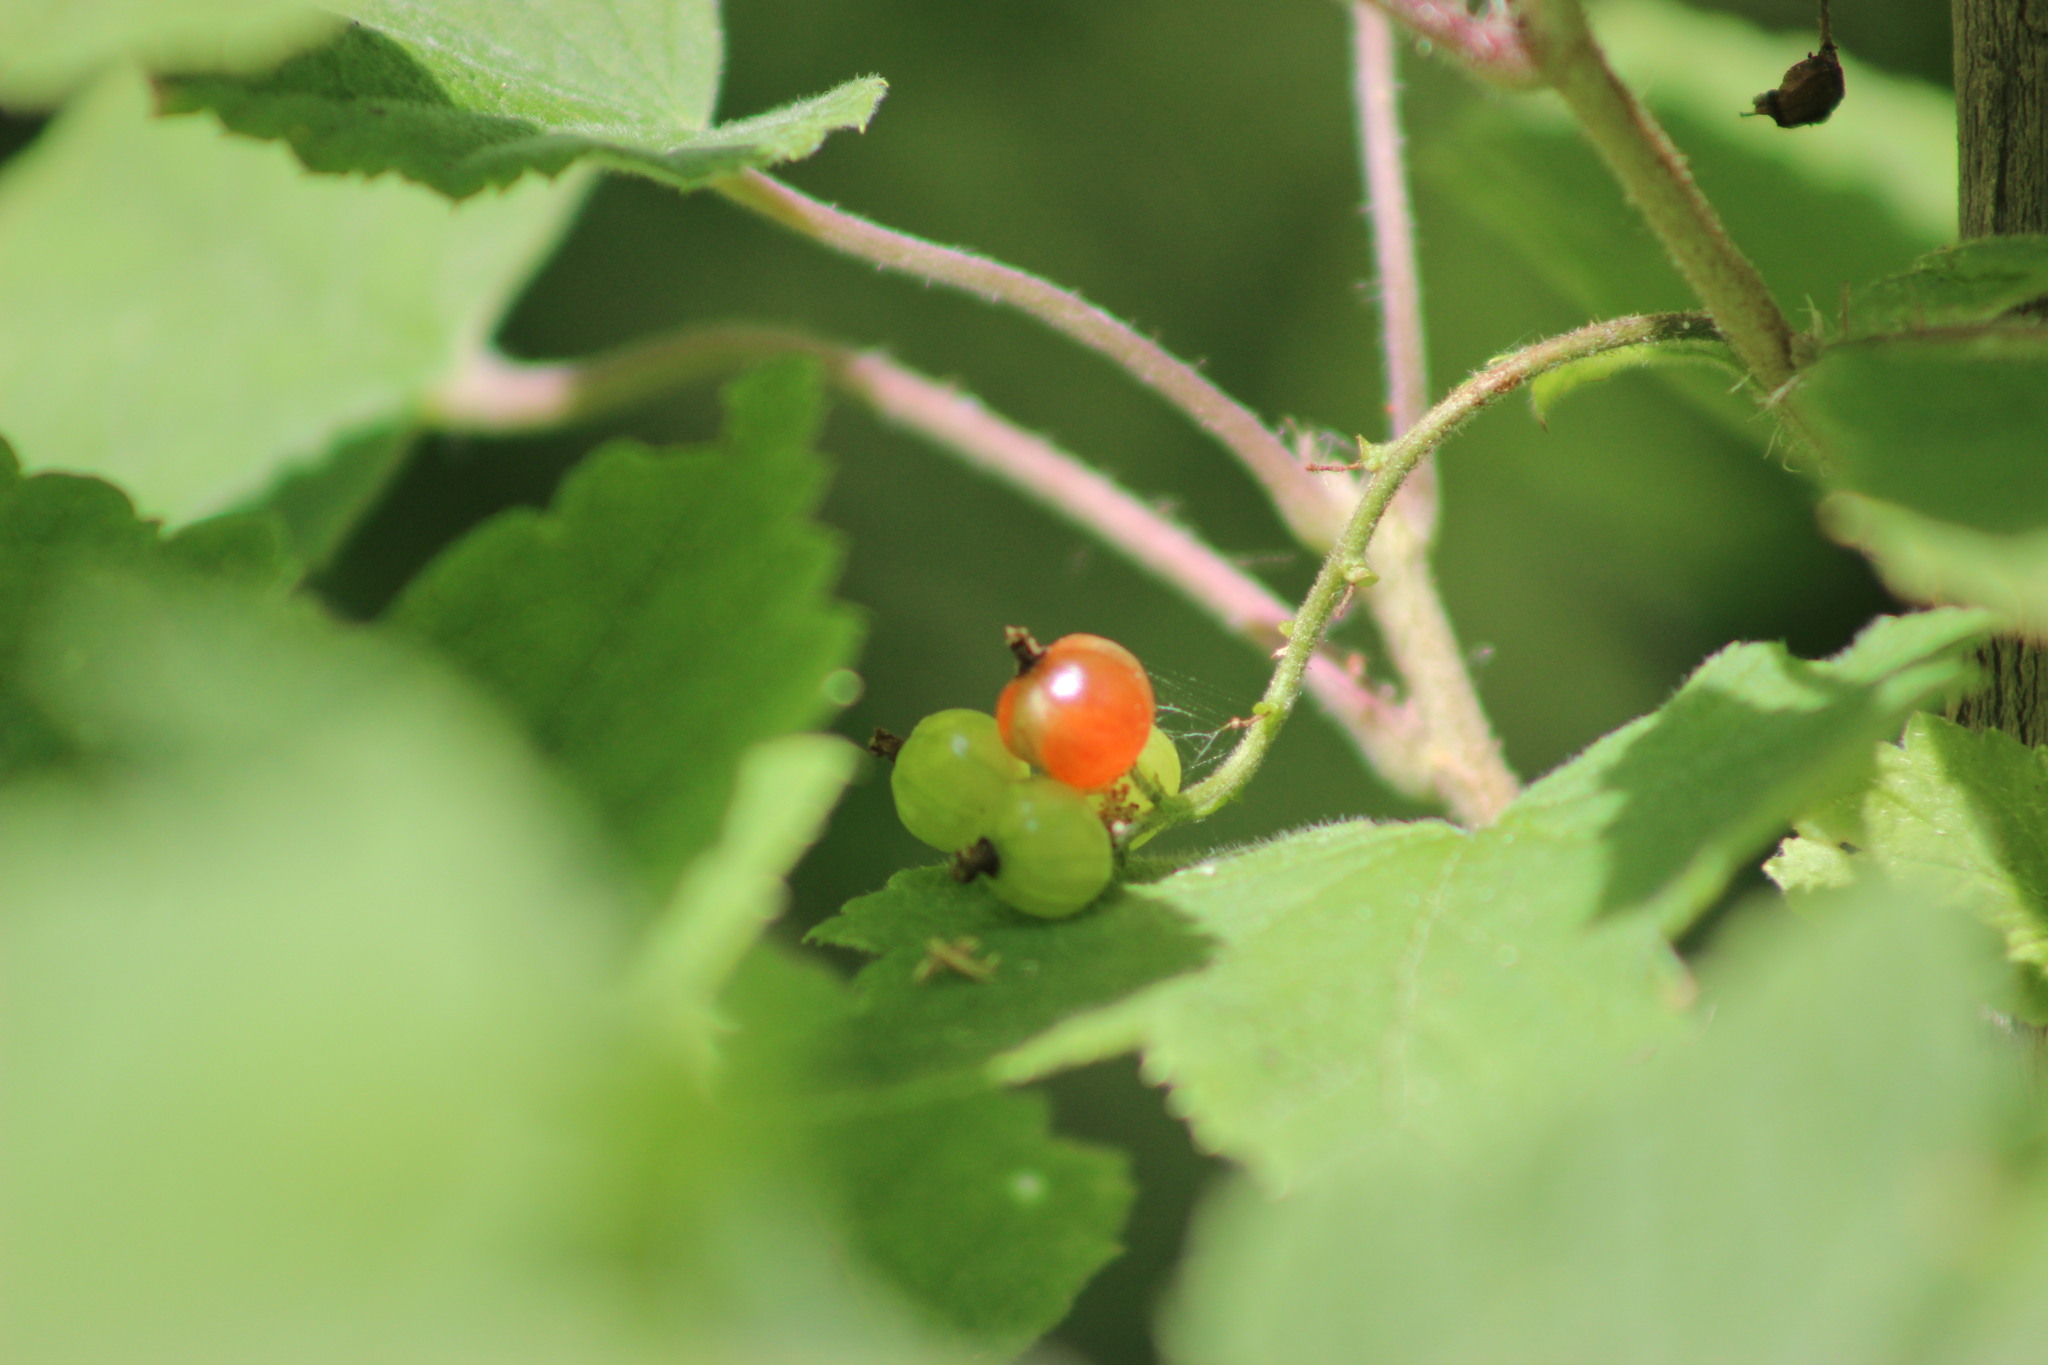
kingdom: Plantae
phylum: Tracheophyta
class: Magnoliopsida
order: Saxifragales
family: Grossulariaceae
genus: Ribes
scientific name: Ribes rubrum
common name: Red currant
